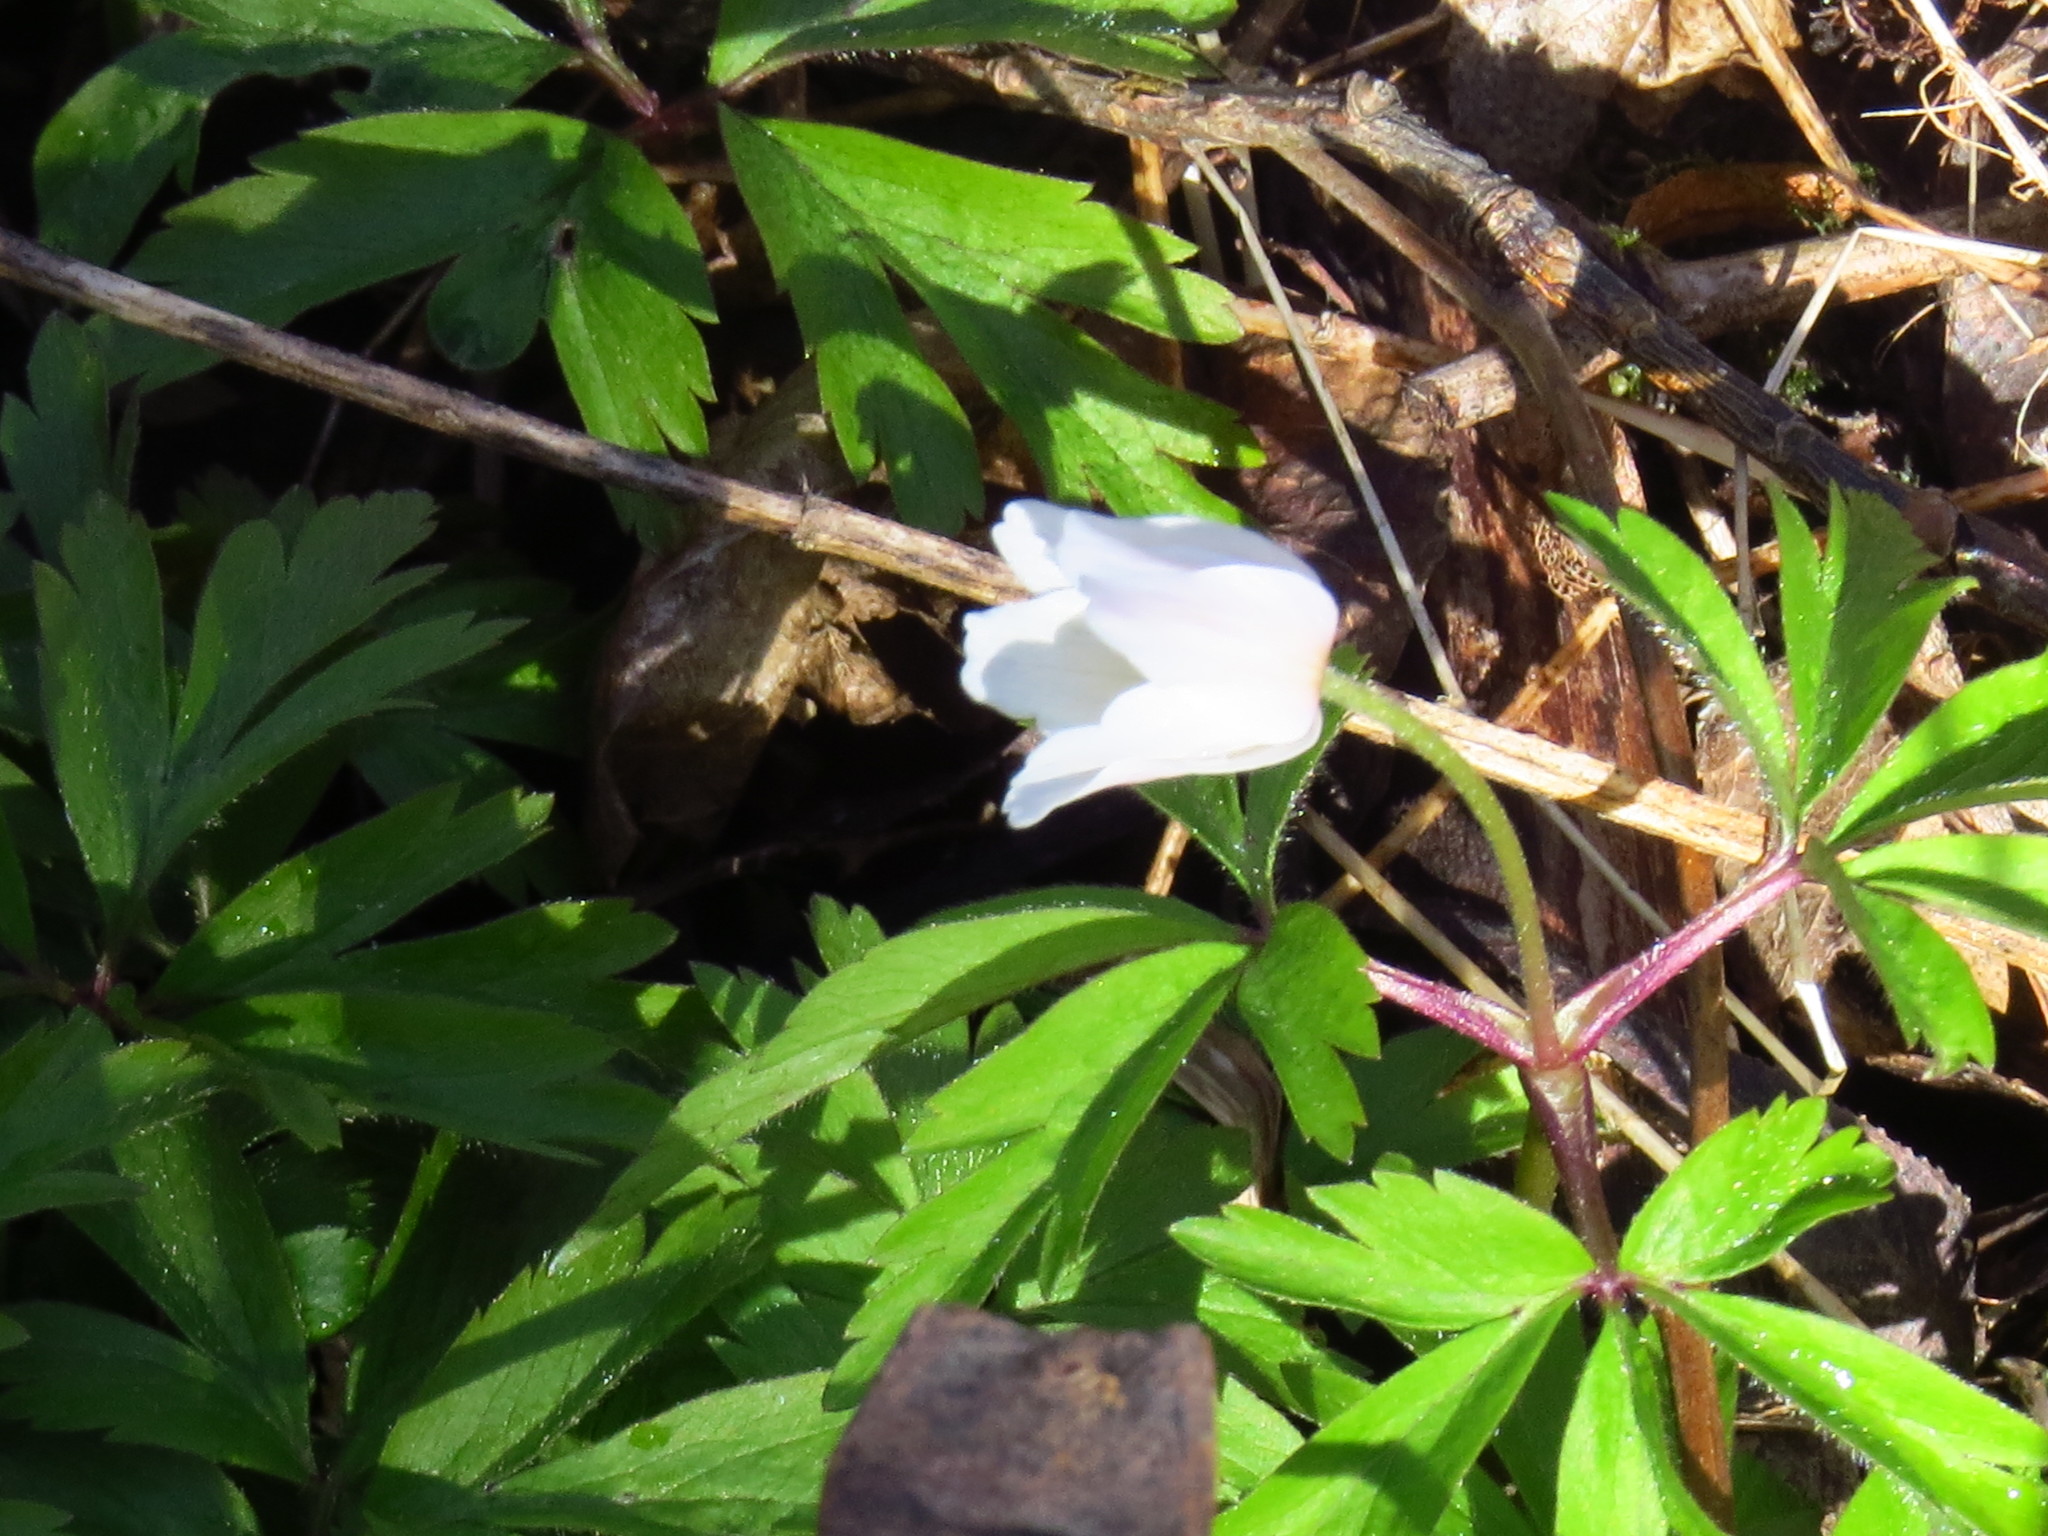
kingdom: Plantae
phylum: Tracheophyta
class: Magnoliopsida
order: Ranunculales
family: Ranunculaceae
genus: Anemone
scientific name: Anemone nemorosa
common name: Wood anemone
